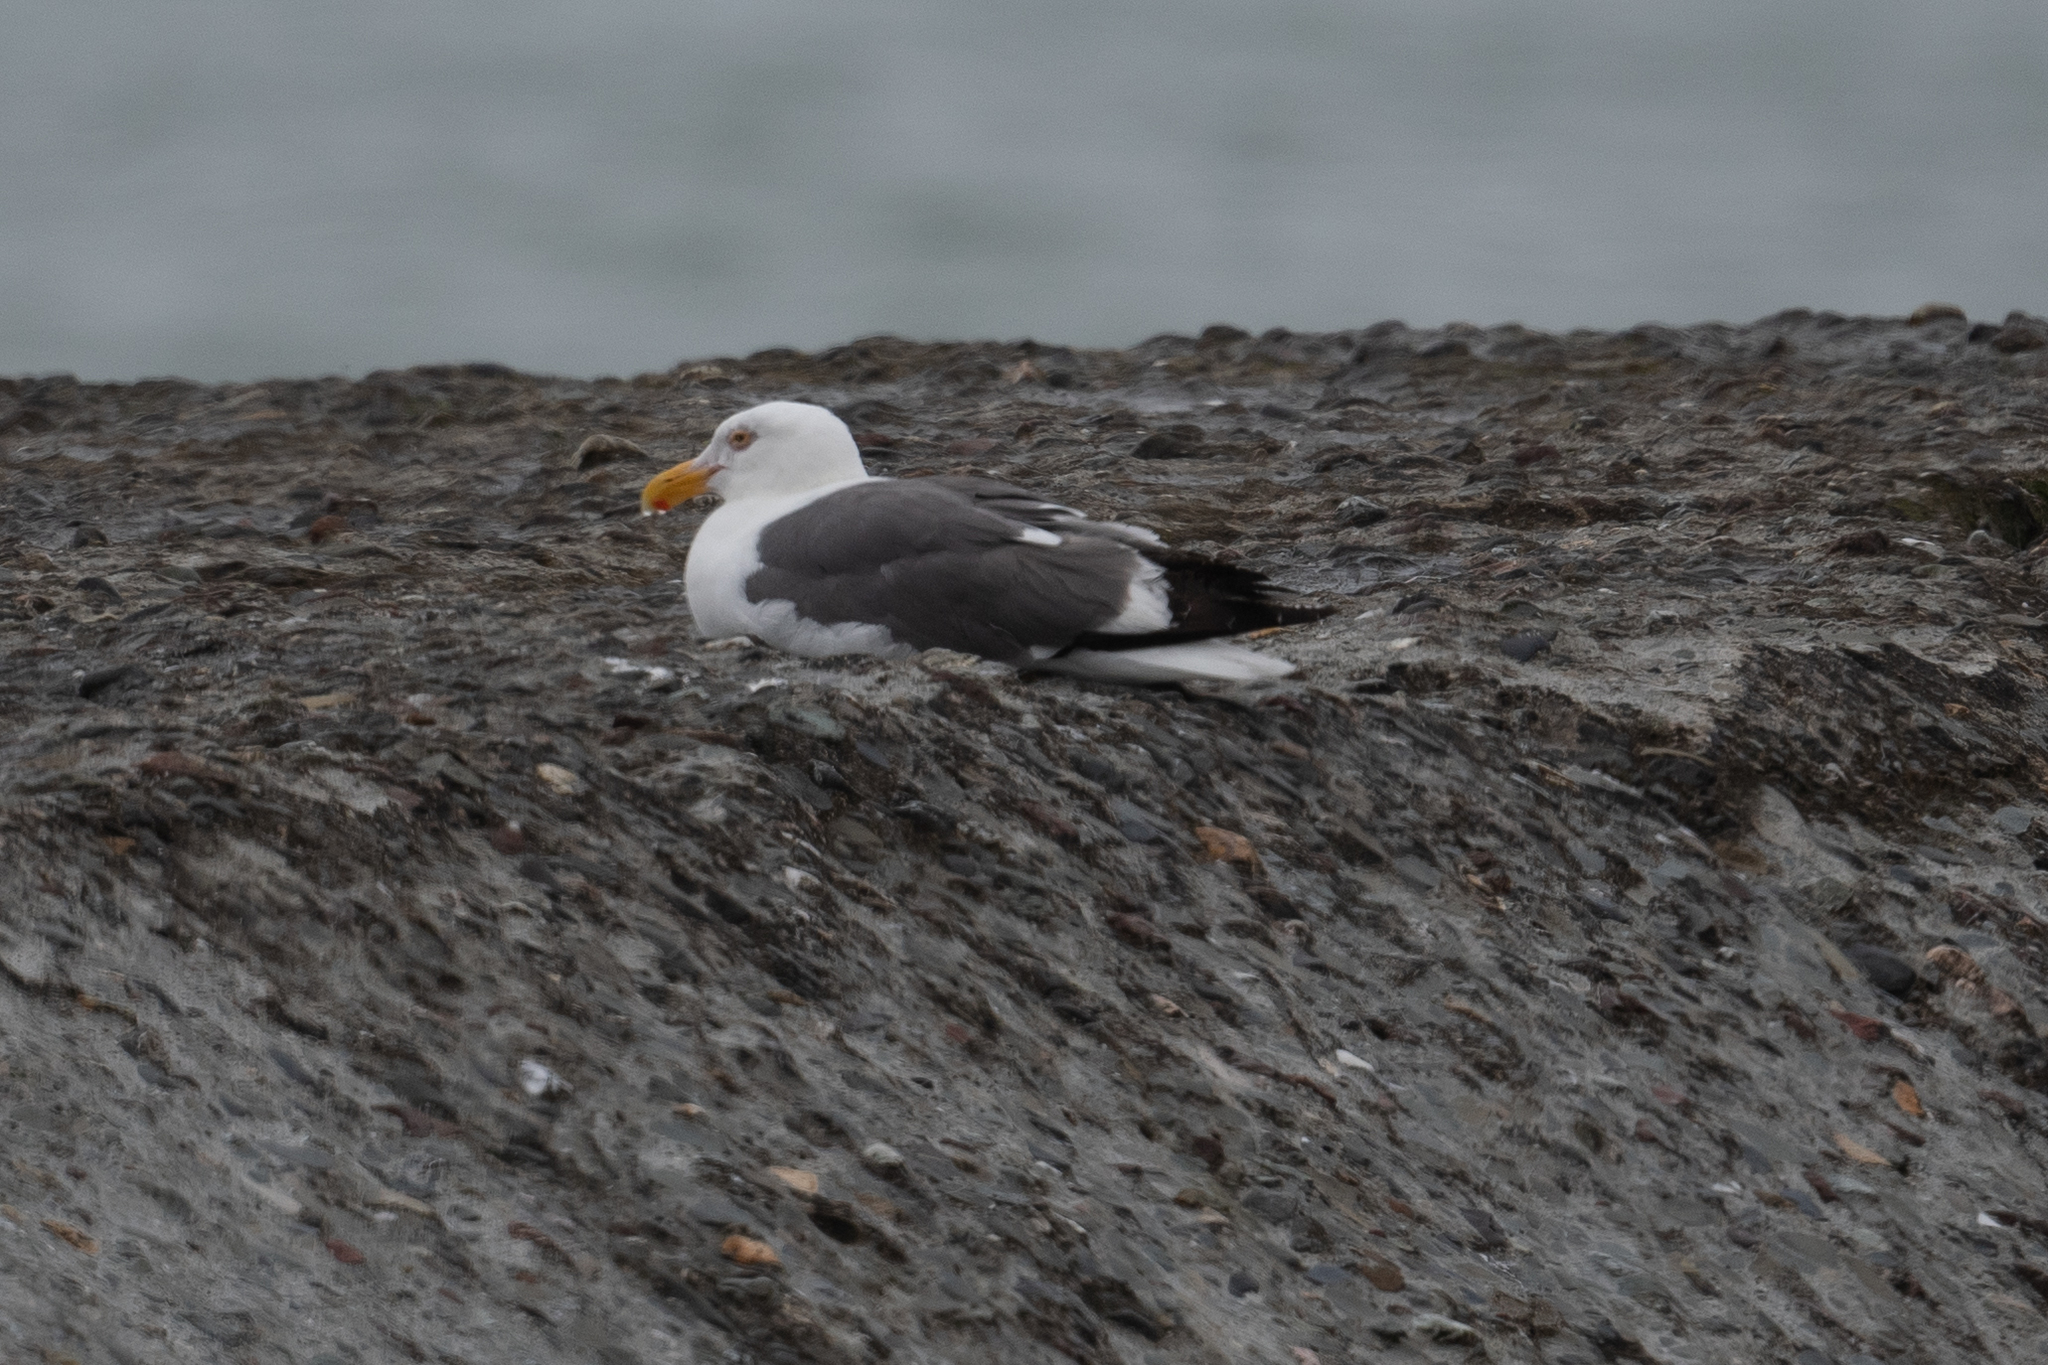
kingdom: Animalia
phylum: Chordata
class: Aves
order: Charadriiformes
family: Laridae
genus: Larus
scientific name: Larus occidentalis
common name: Western gull
